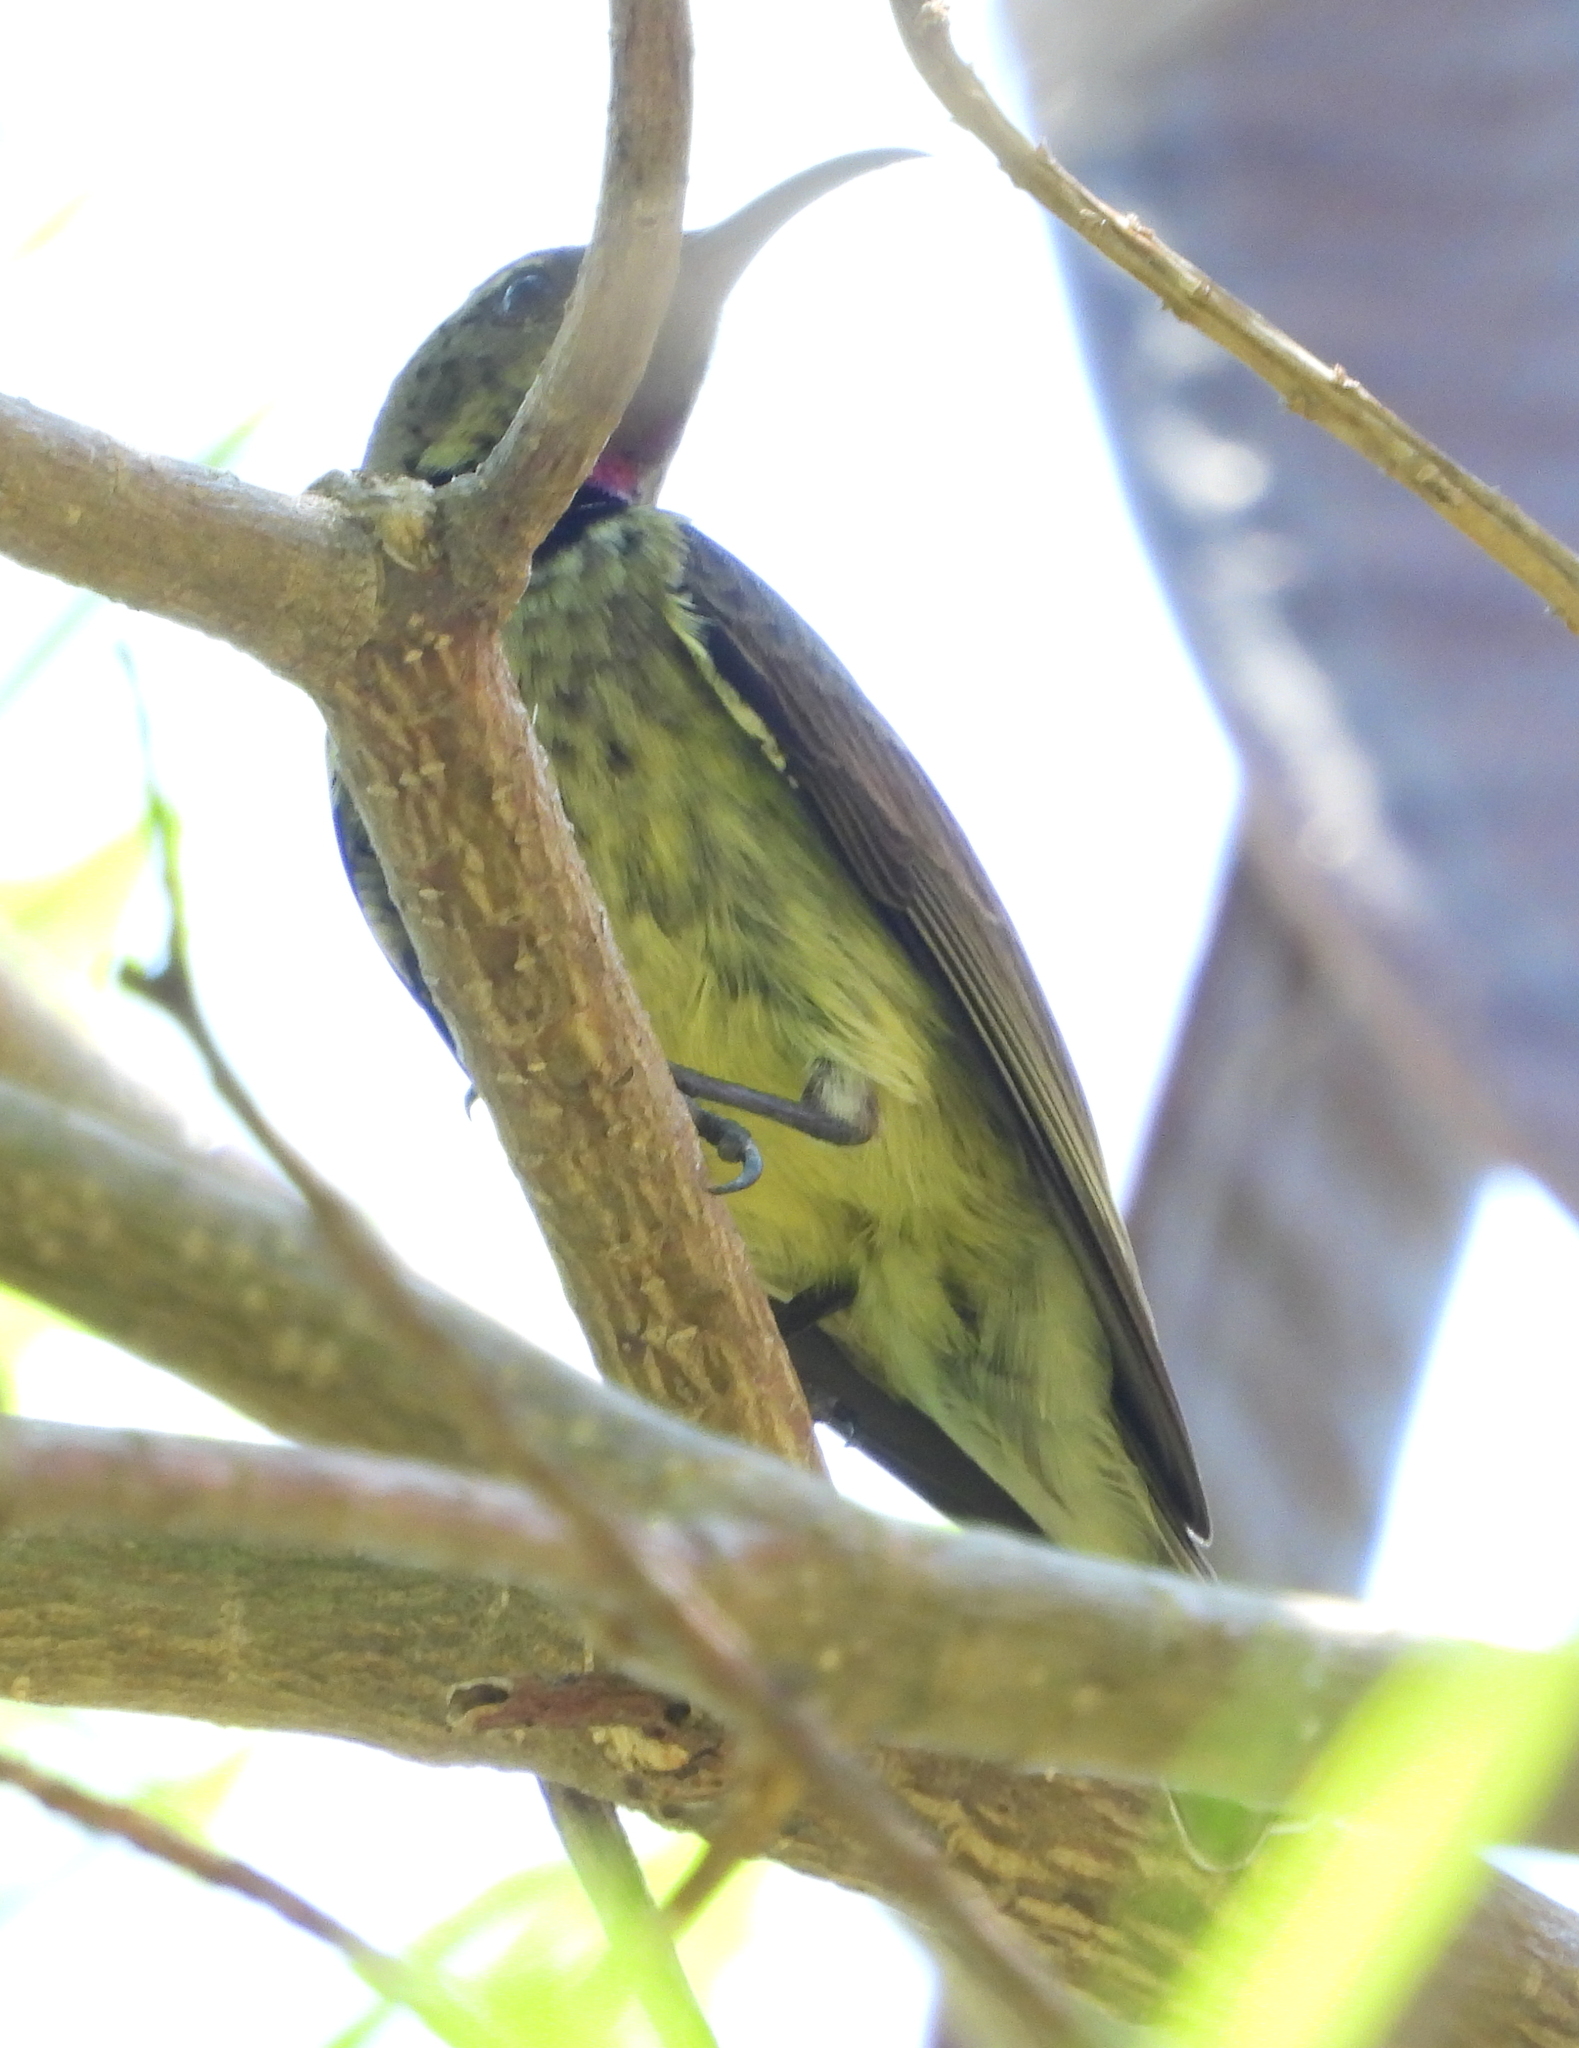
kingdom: Animalia
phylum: Chordata
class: Aves
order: Passeriformes
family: Nectariniidae
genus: Chalcomitra
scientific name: Chalcomitra amethystina
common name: Amethyst sunbird
